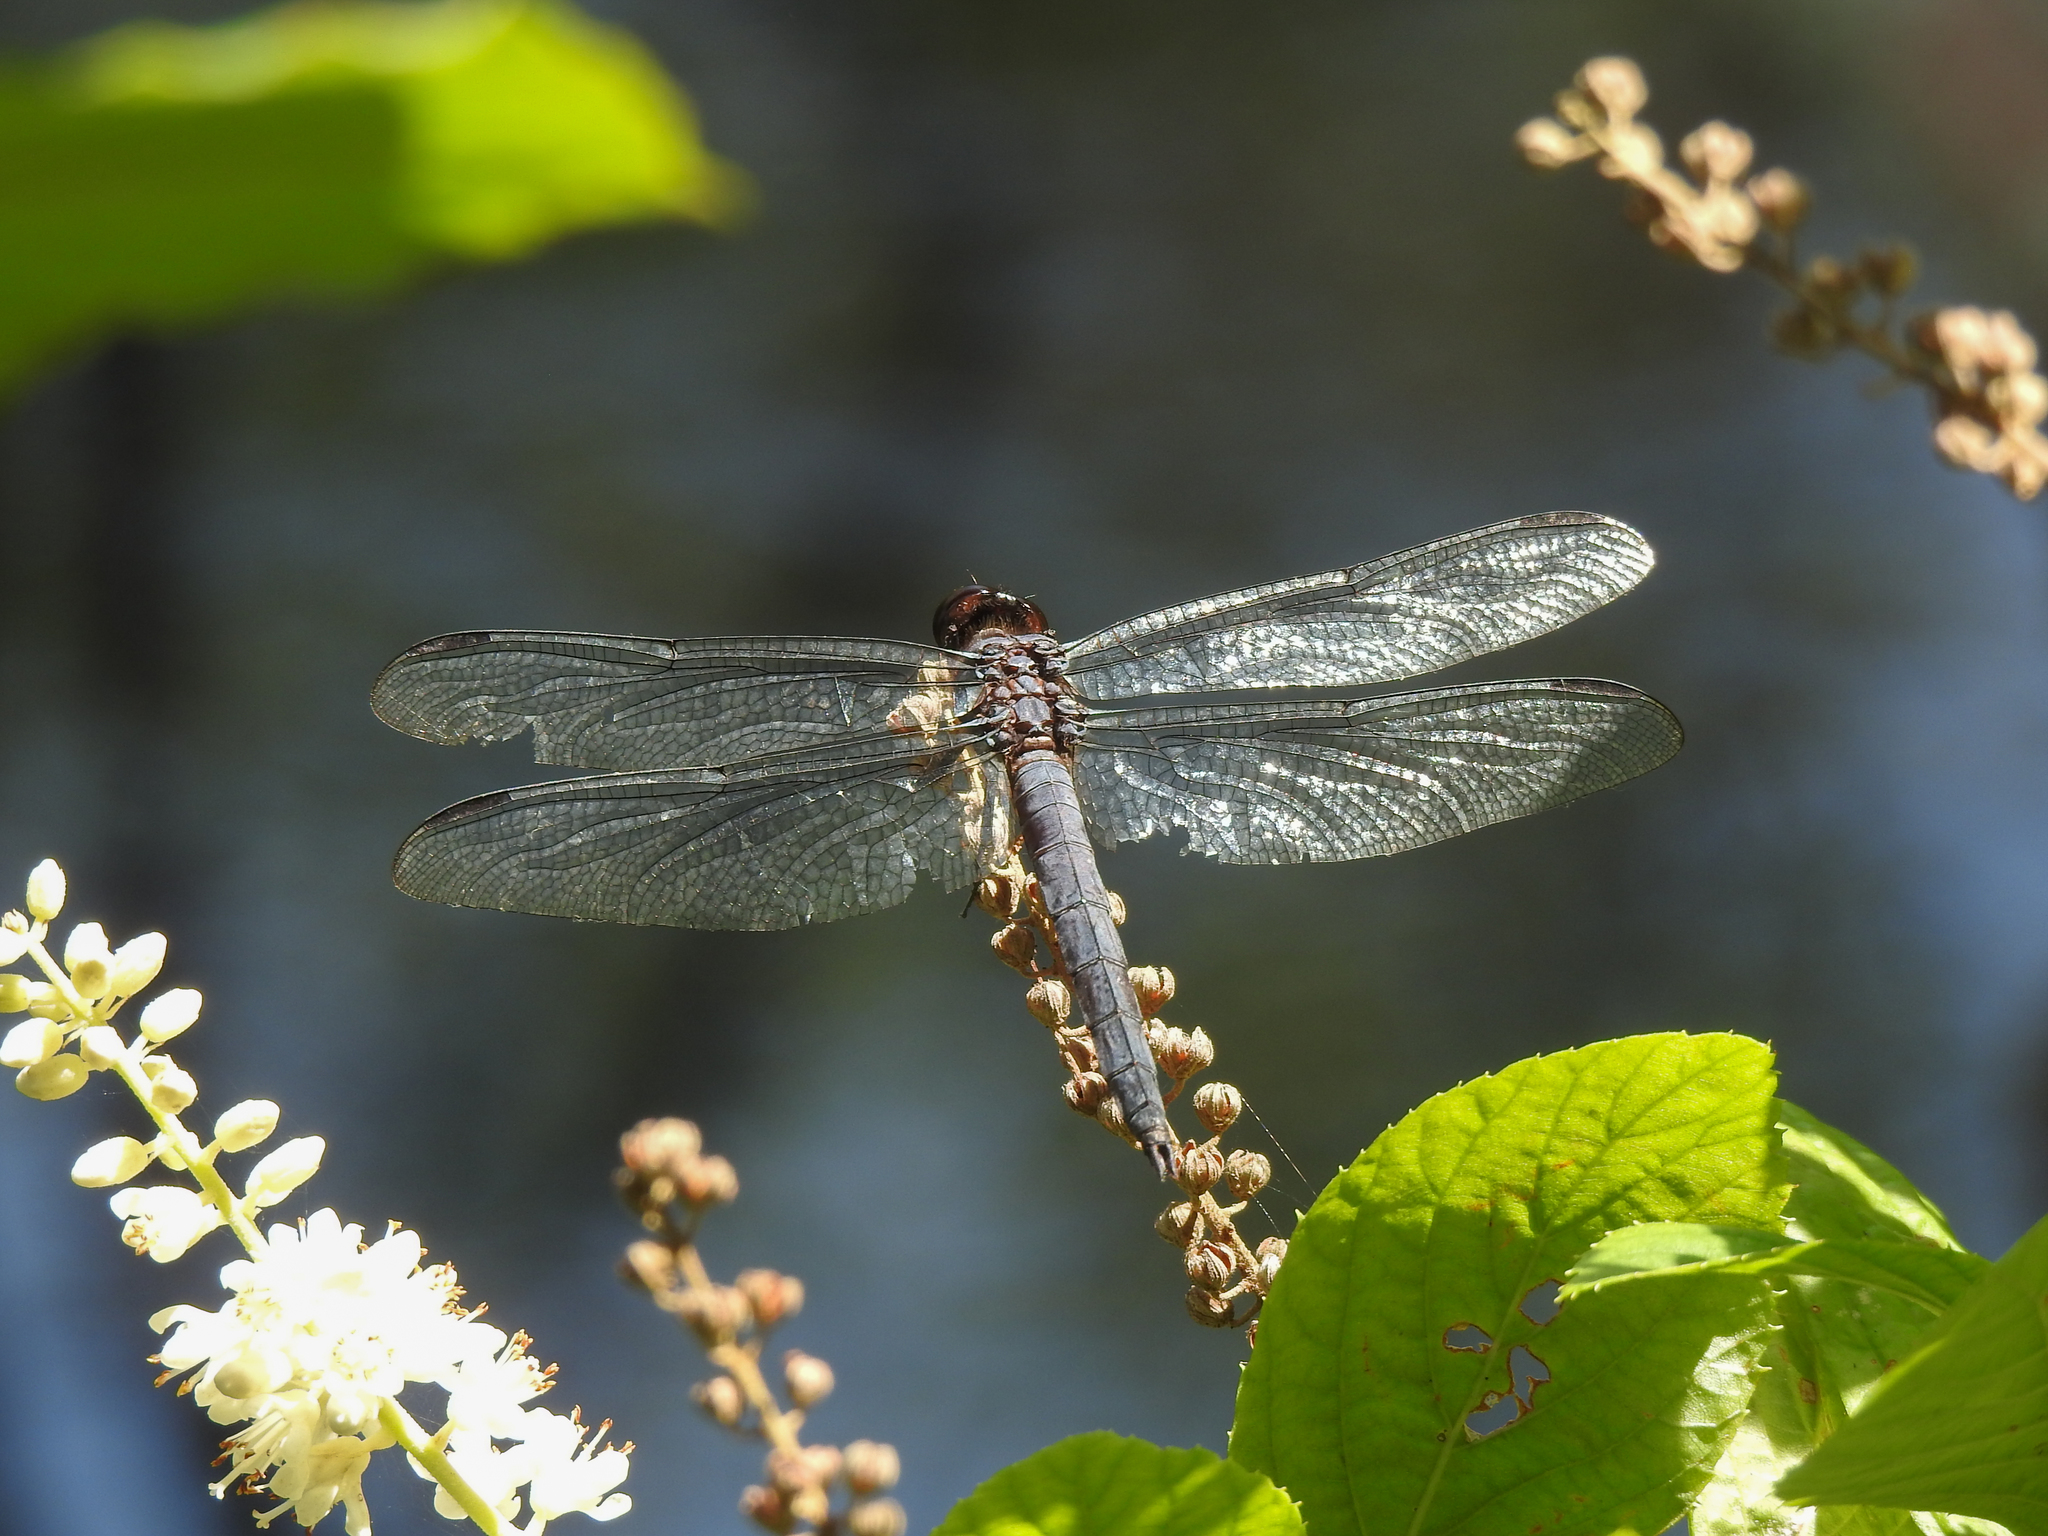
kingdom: Animalia
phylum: Arthropoda
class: Insecta
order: Odonata
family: Libellulidae
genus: Libellula
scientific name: Libellula incesta
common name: Slaty skimmer
